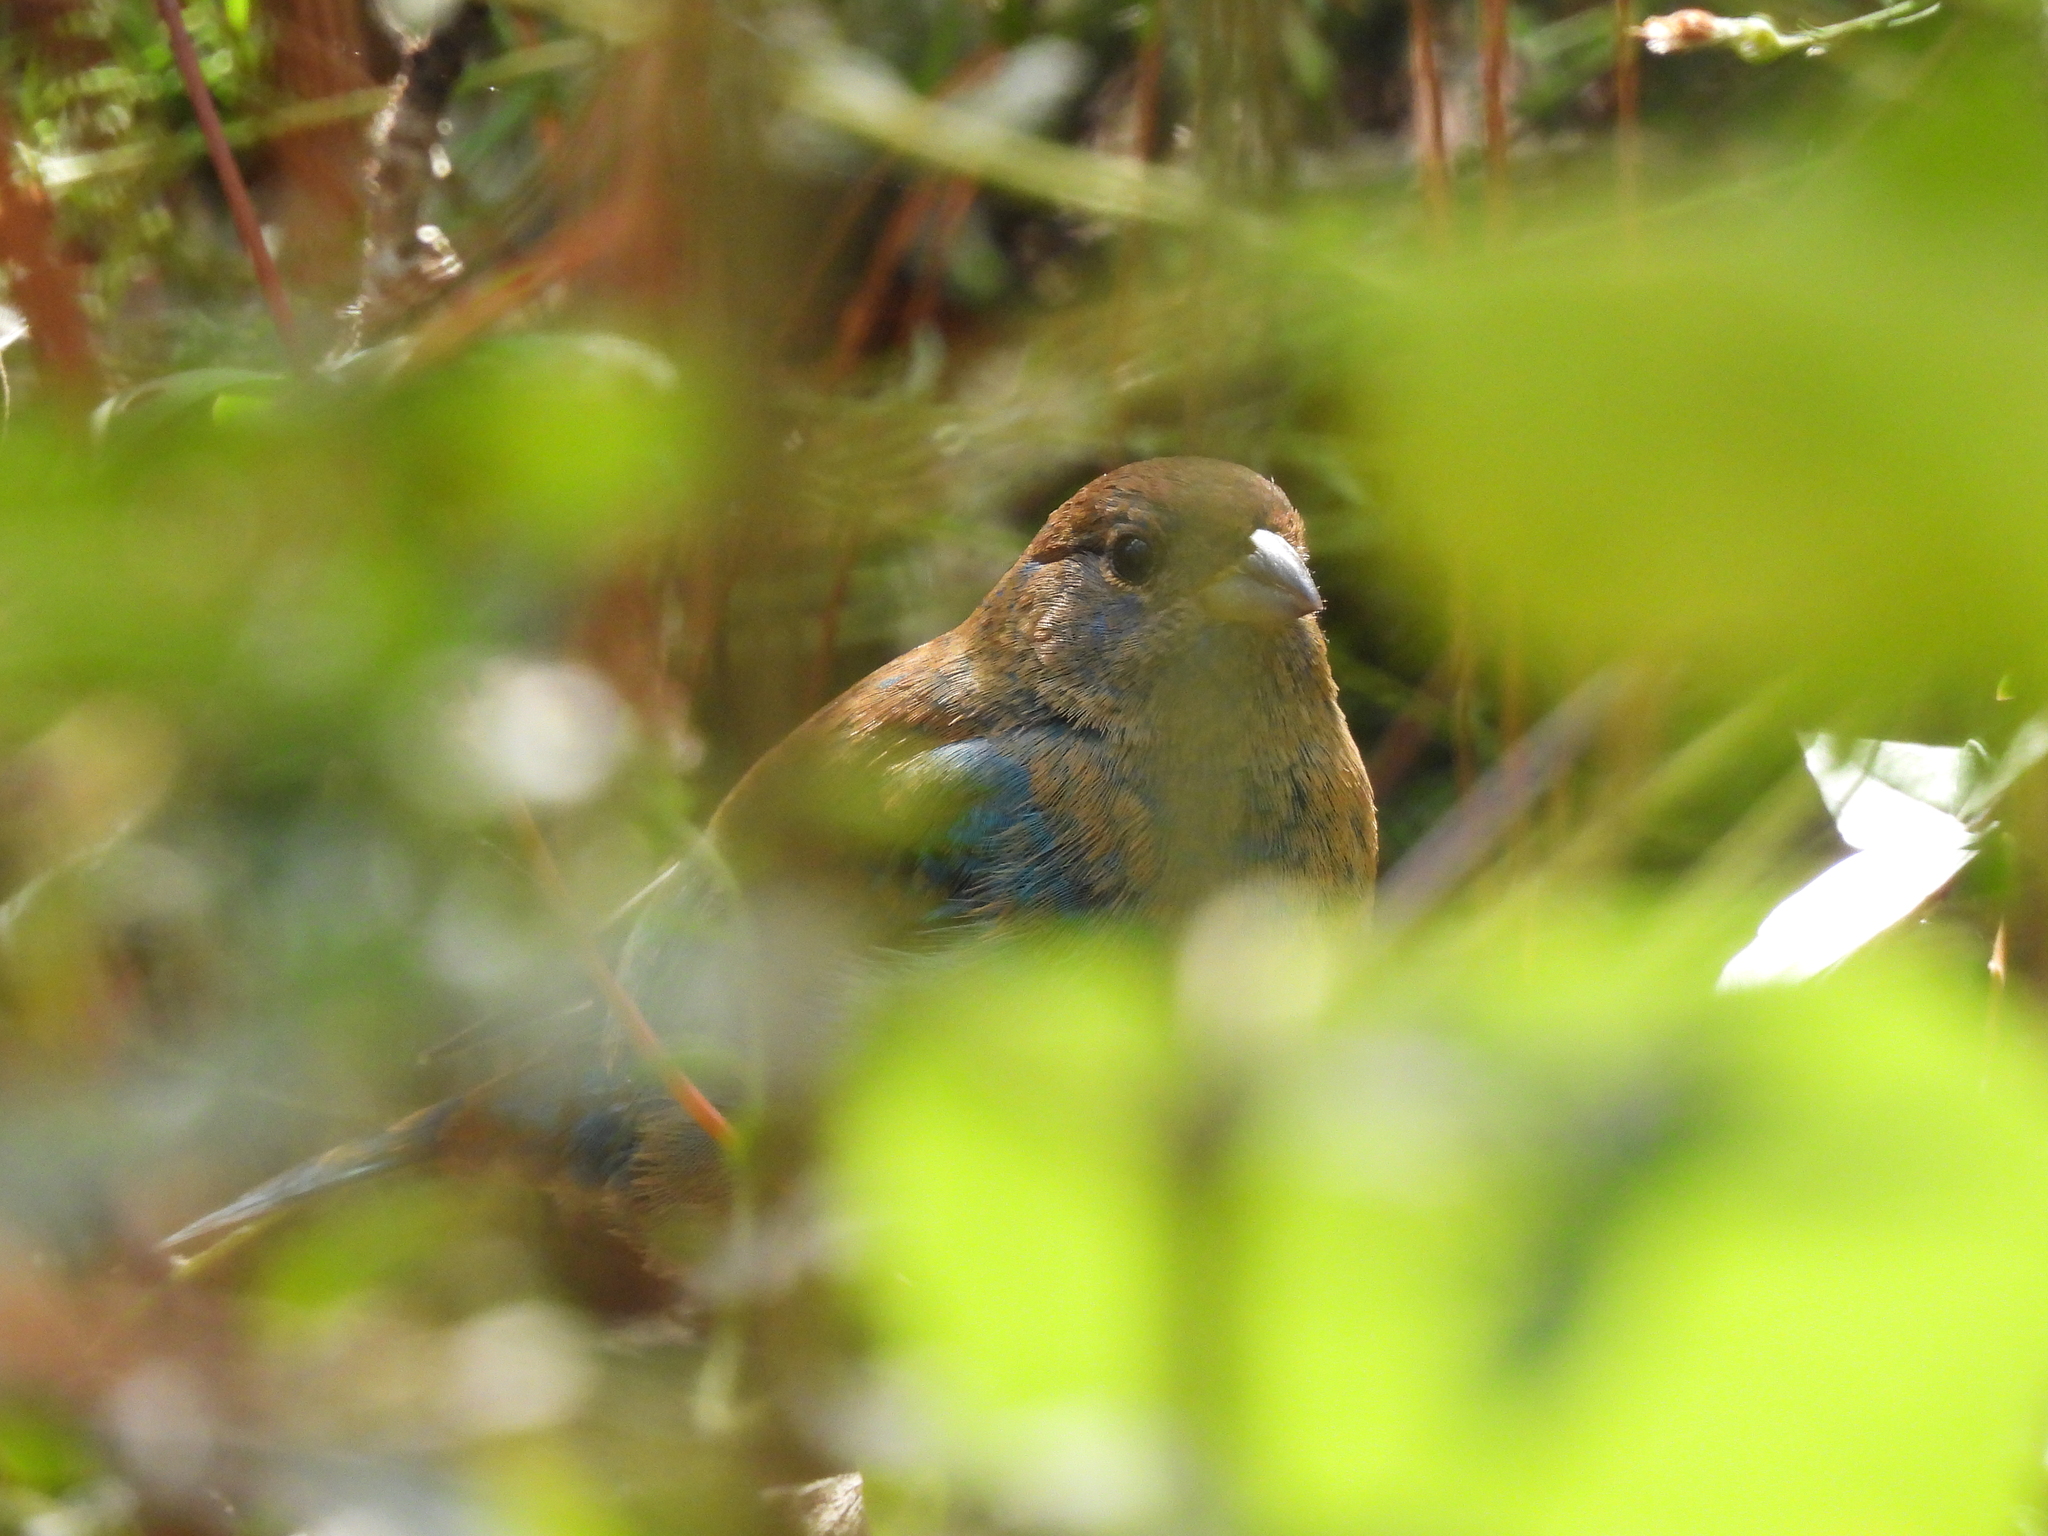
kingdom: Animalia
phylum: Chordata
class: Aves
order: Passeriformes
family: Cardinalidae
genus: Passerina
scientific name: Passerina cyanea
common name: Indigo bunting
